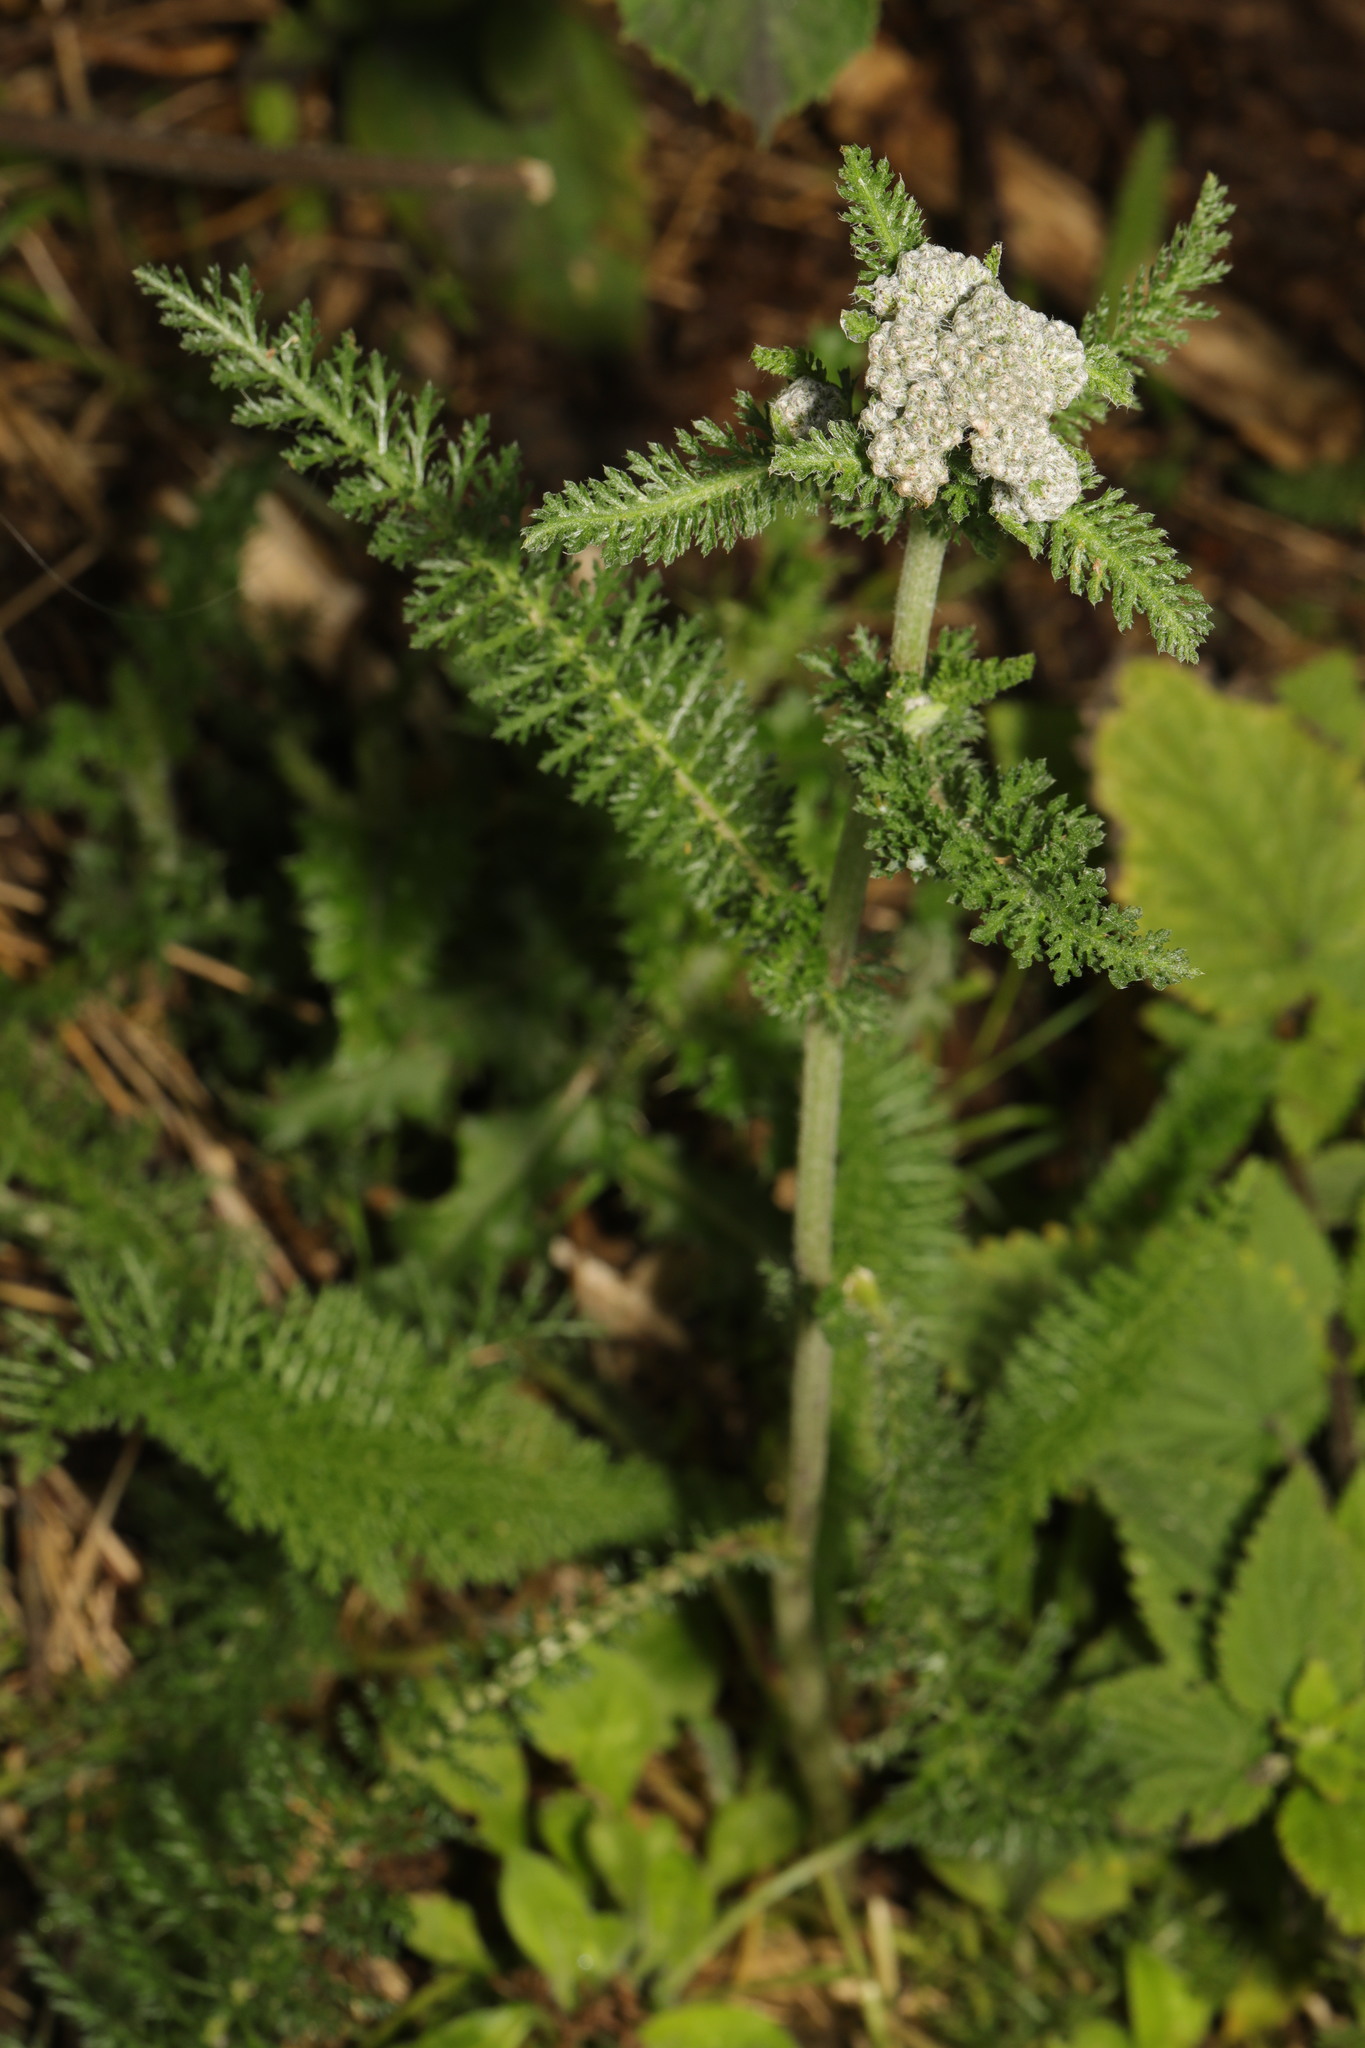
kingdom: Plantae
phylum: Tracheophyta
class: Magnoliopsida
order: Asterales
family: Asteraceae
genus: Achillea
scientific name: Achillea millefolium
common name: Yarrow
